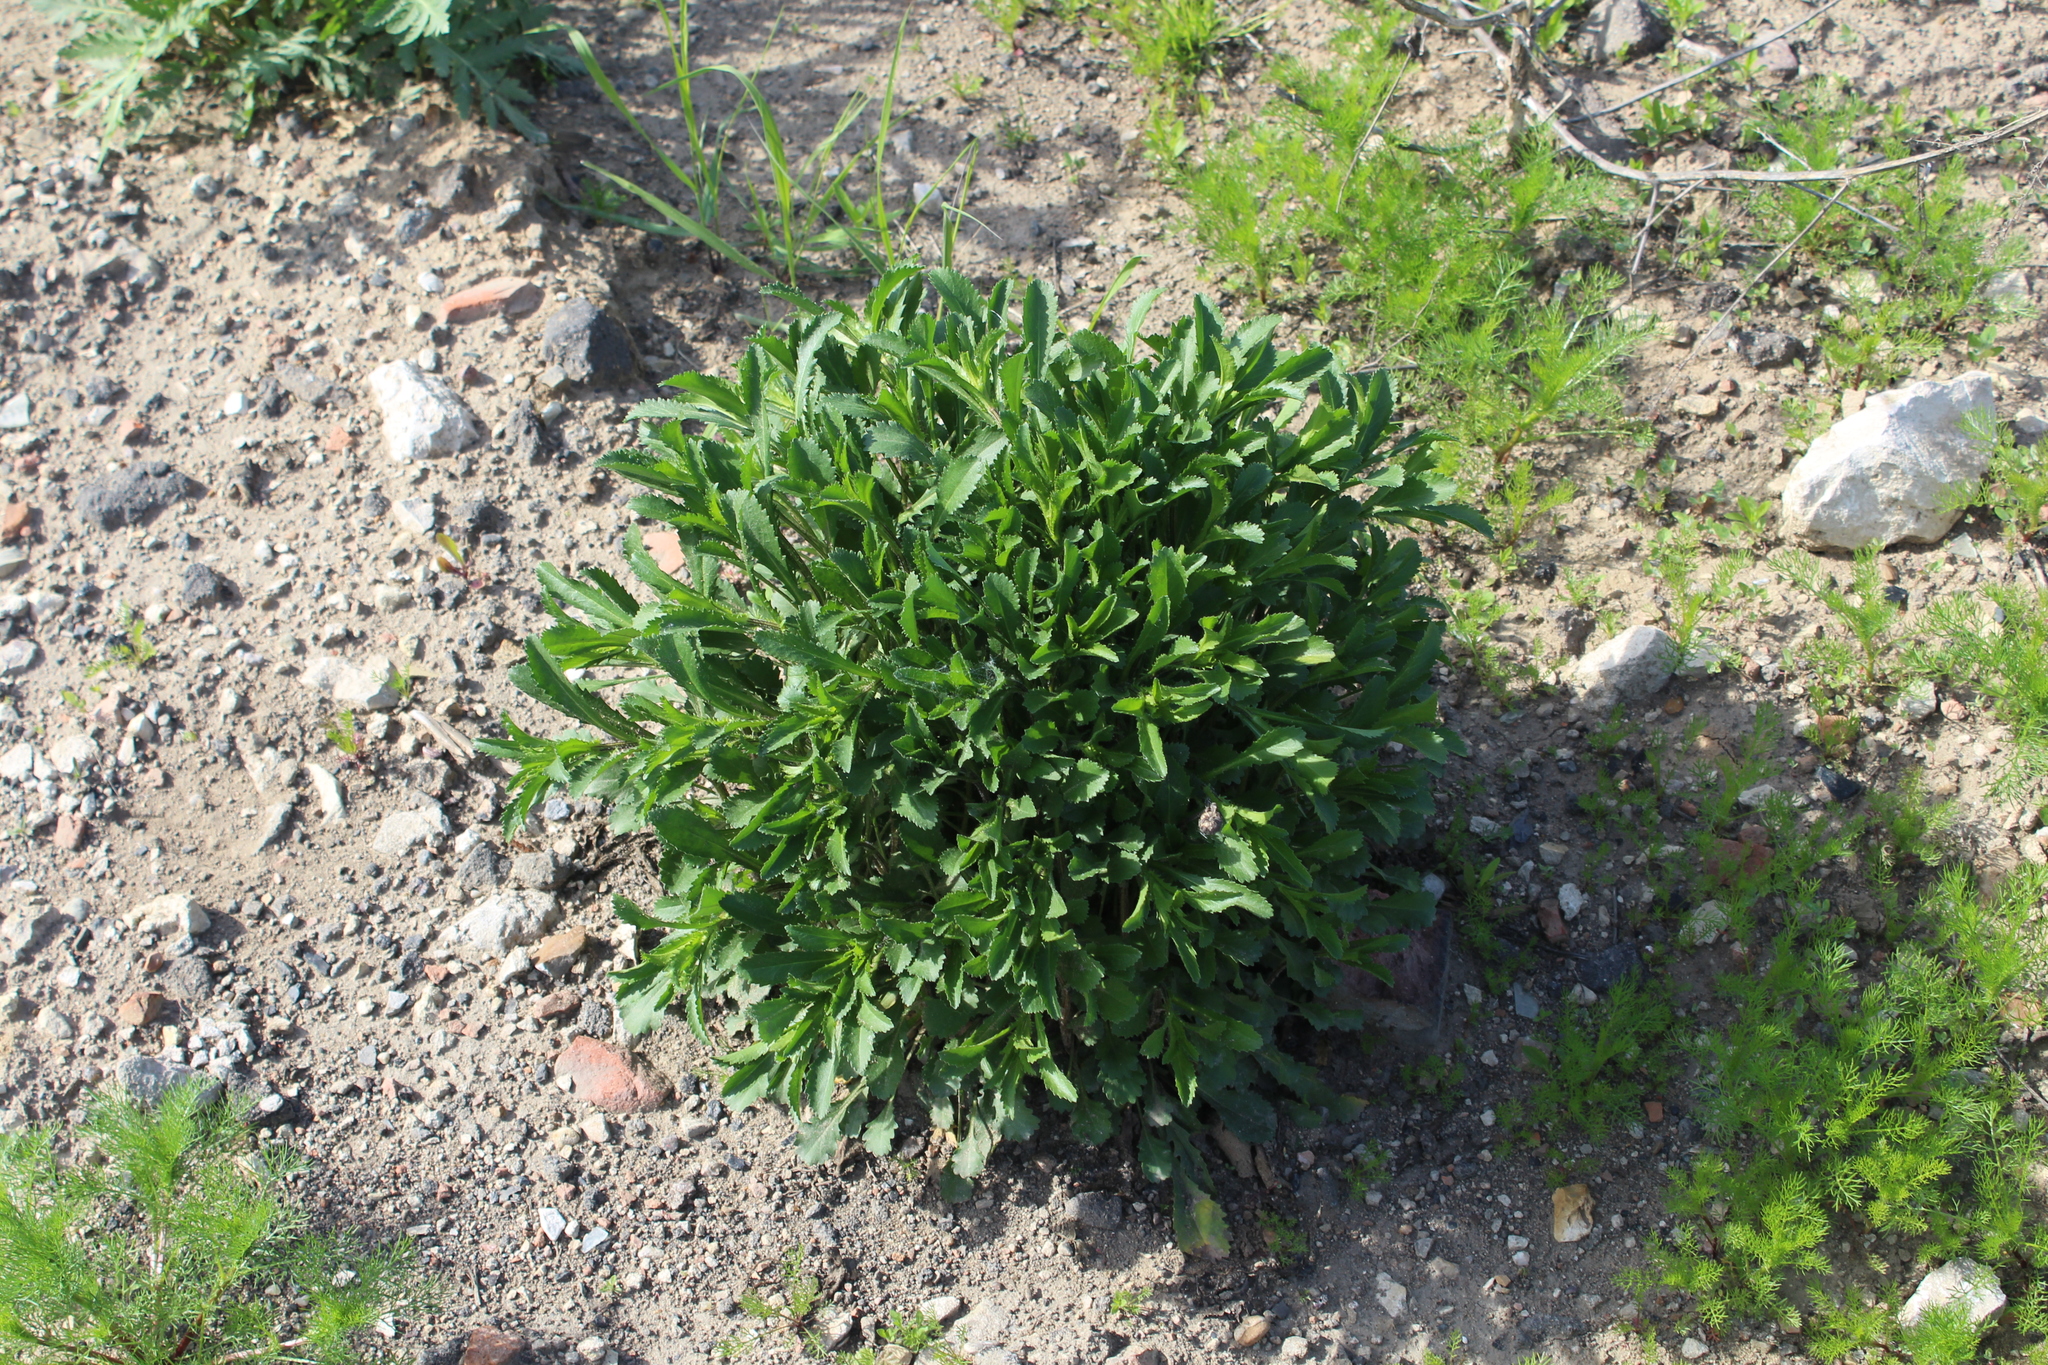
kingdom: Plantae
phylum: Tracheophyta
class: Magnoliopsida
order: Asterales
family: Asteraceae
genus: Leucanthemum
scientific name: Leucanthemum vulgare
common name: Oxeye daisy
